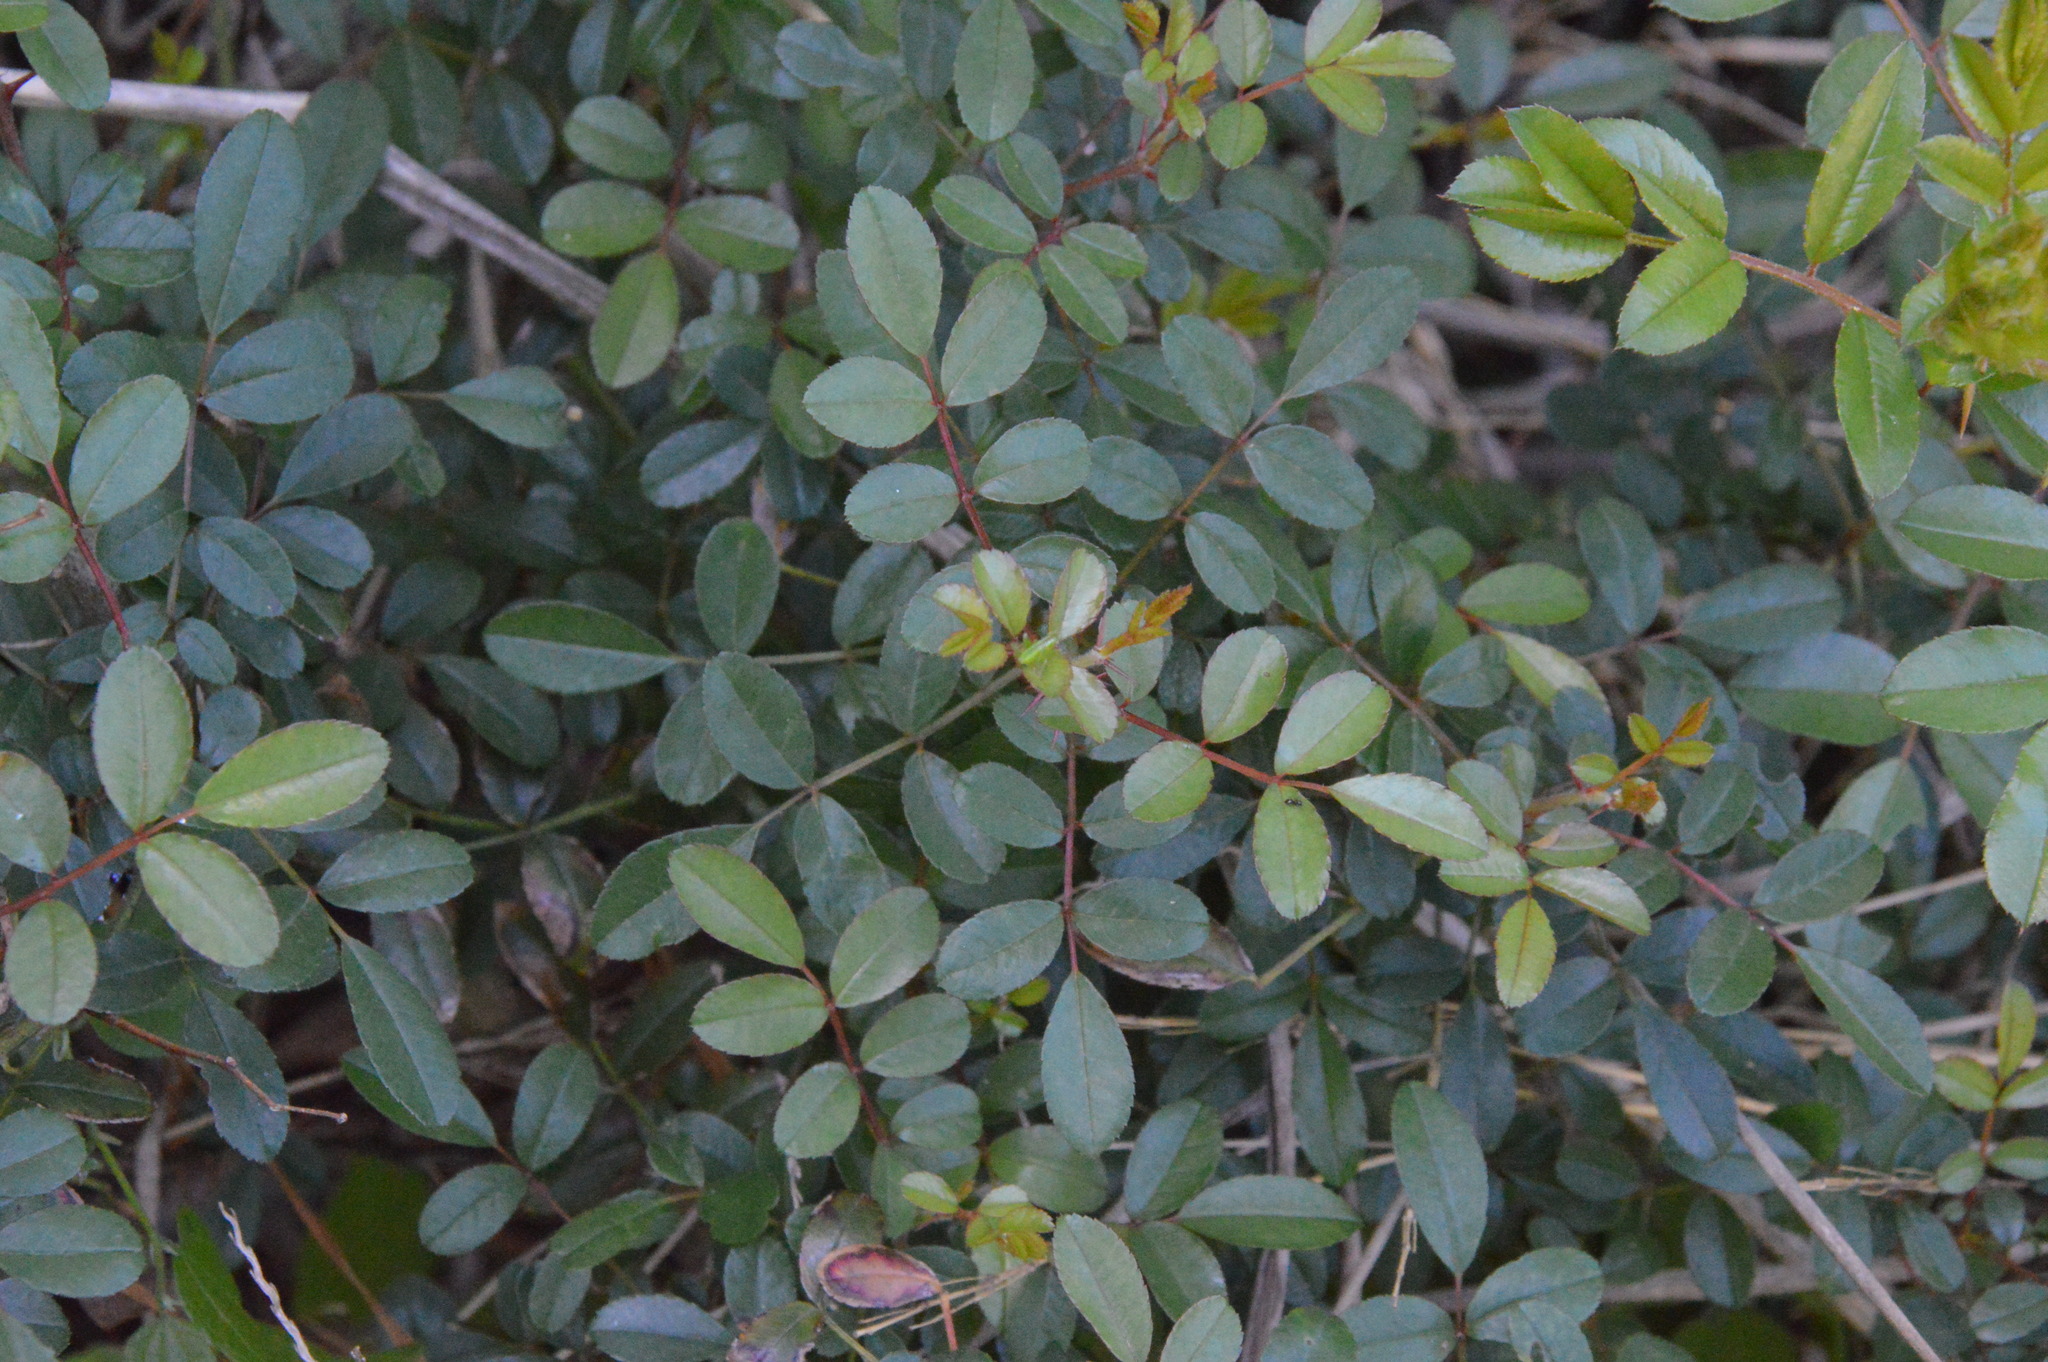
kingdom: Plantae
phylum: Tracheophyta
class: Magnoliopsida
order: Rosales
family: Rosaceae
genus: Rosa
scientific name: Rosa bracteata
